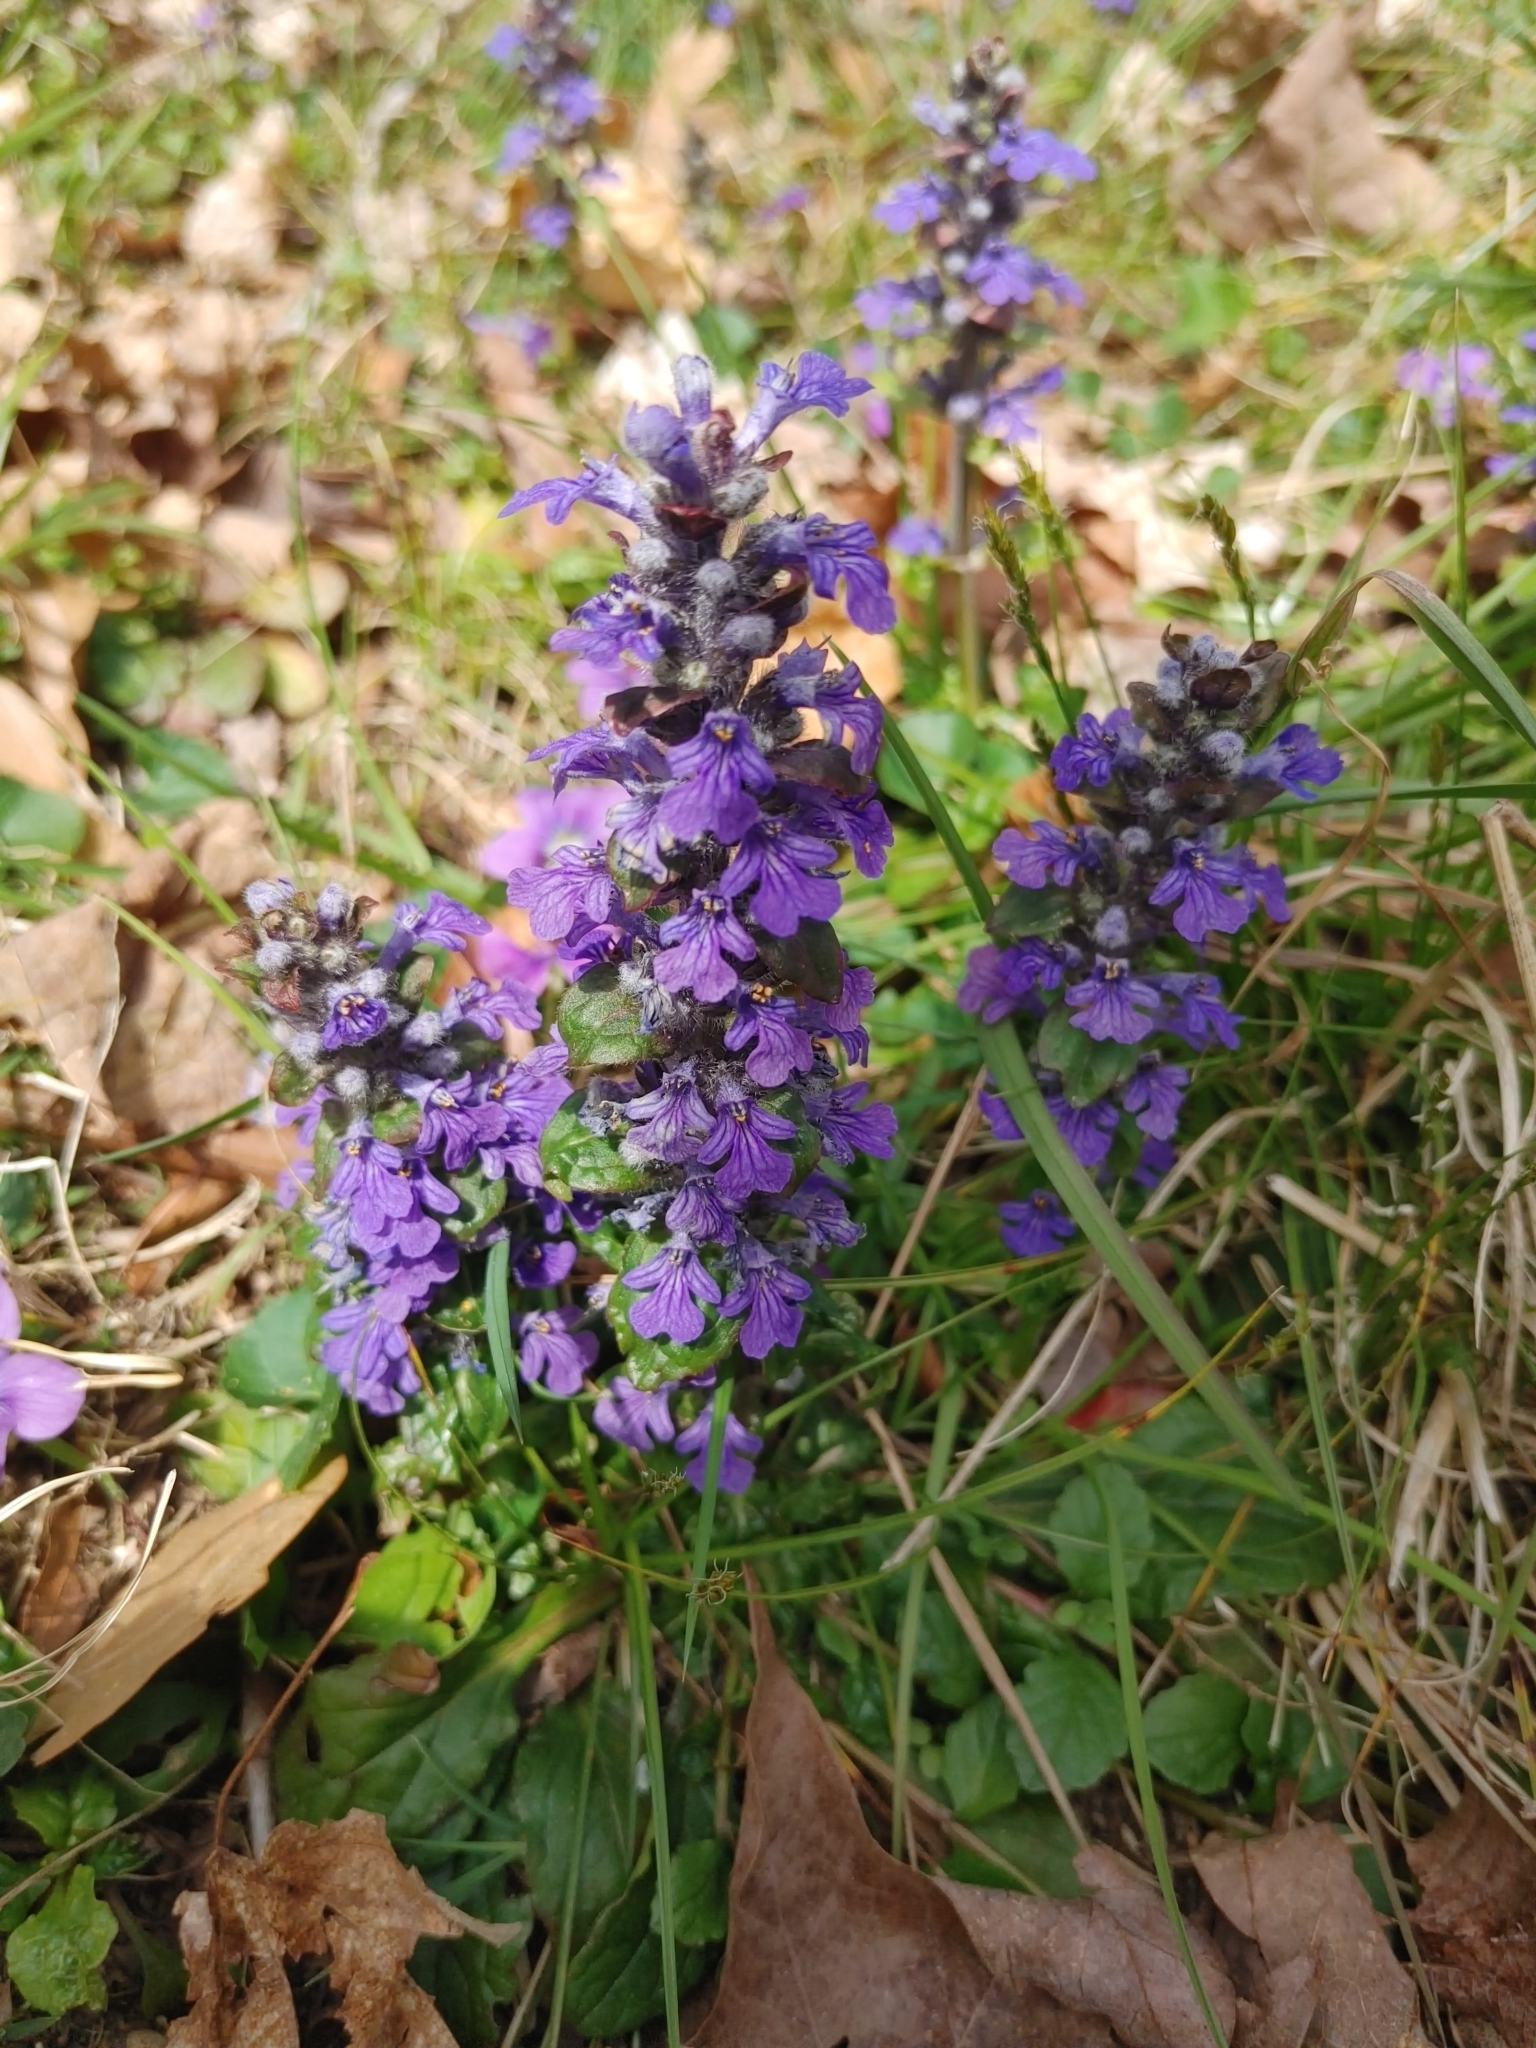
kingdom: Plantae
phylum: Tracheophyta
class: Magnoliopsida
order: Lamiales
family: Lamiaceae
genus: Ajuga
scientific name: Ajuga reptans
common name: Bugle
